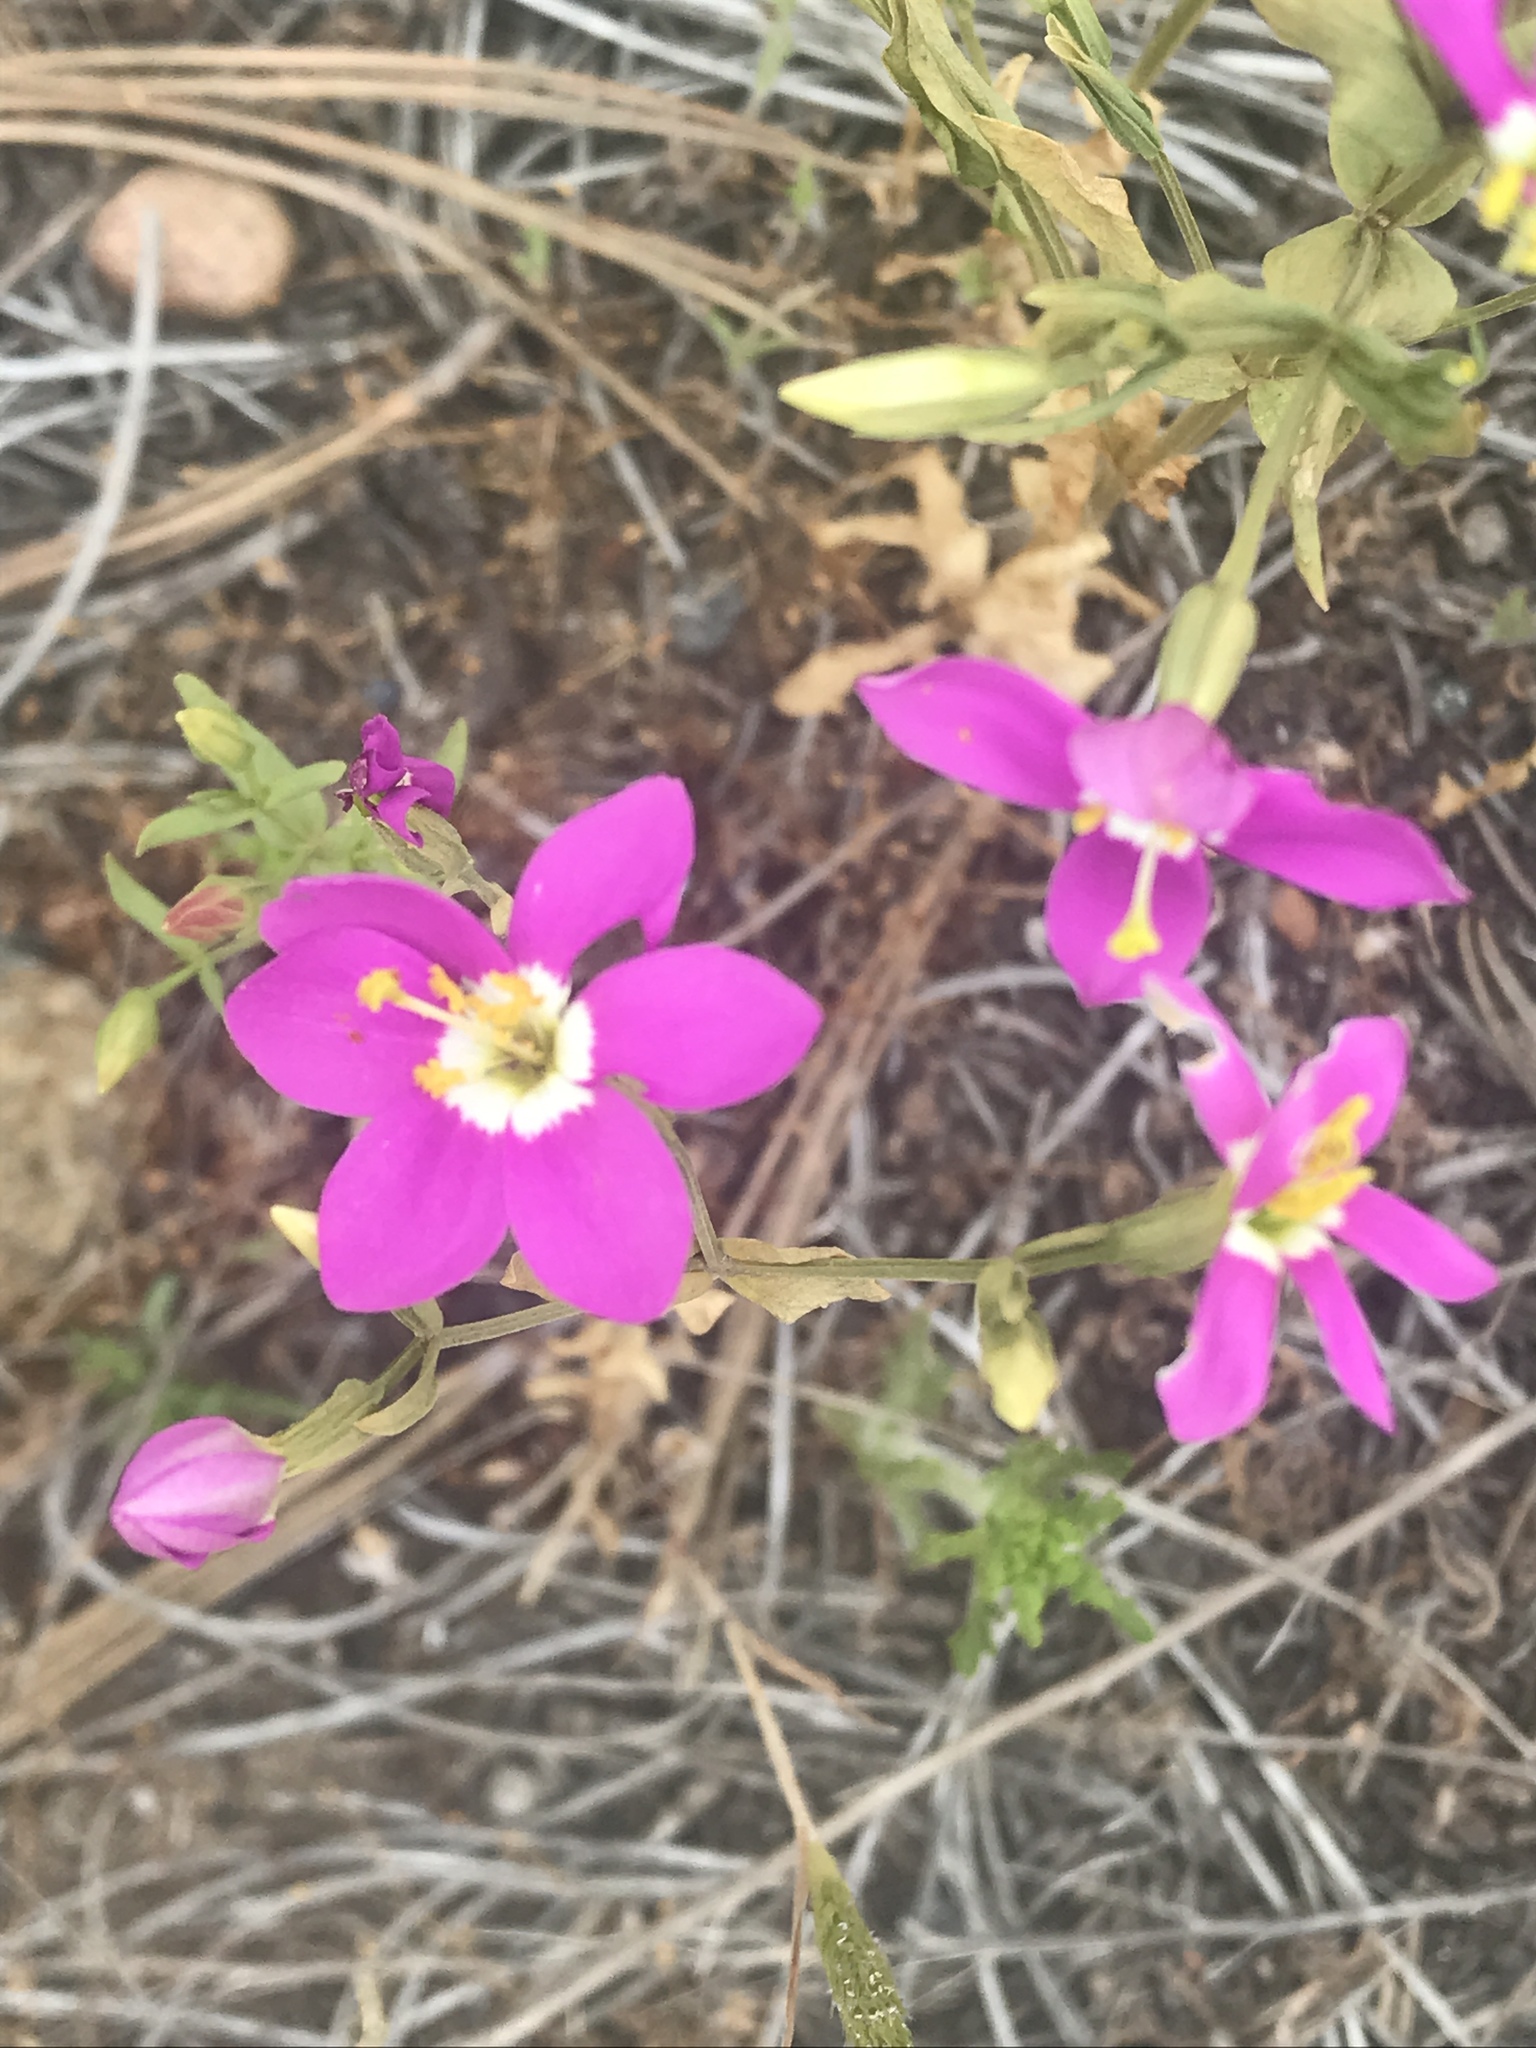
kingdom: Plantae
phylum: Tracheophyta
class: Magnoliopsida
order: Gentianales
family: Gentianaceae
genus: Zeltnera
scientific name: Zeltnera venusta
